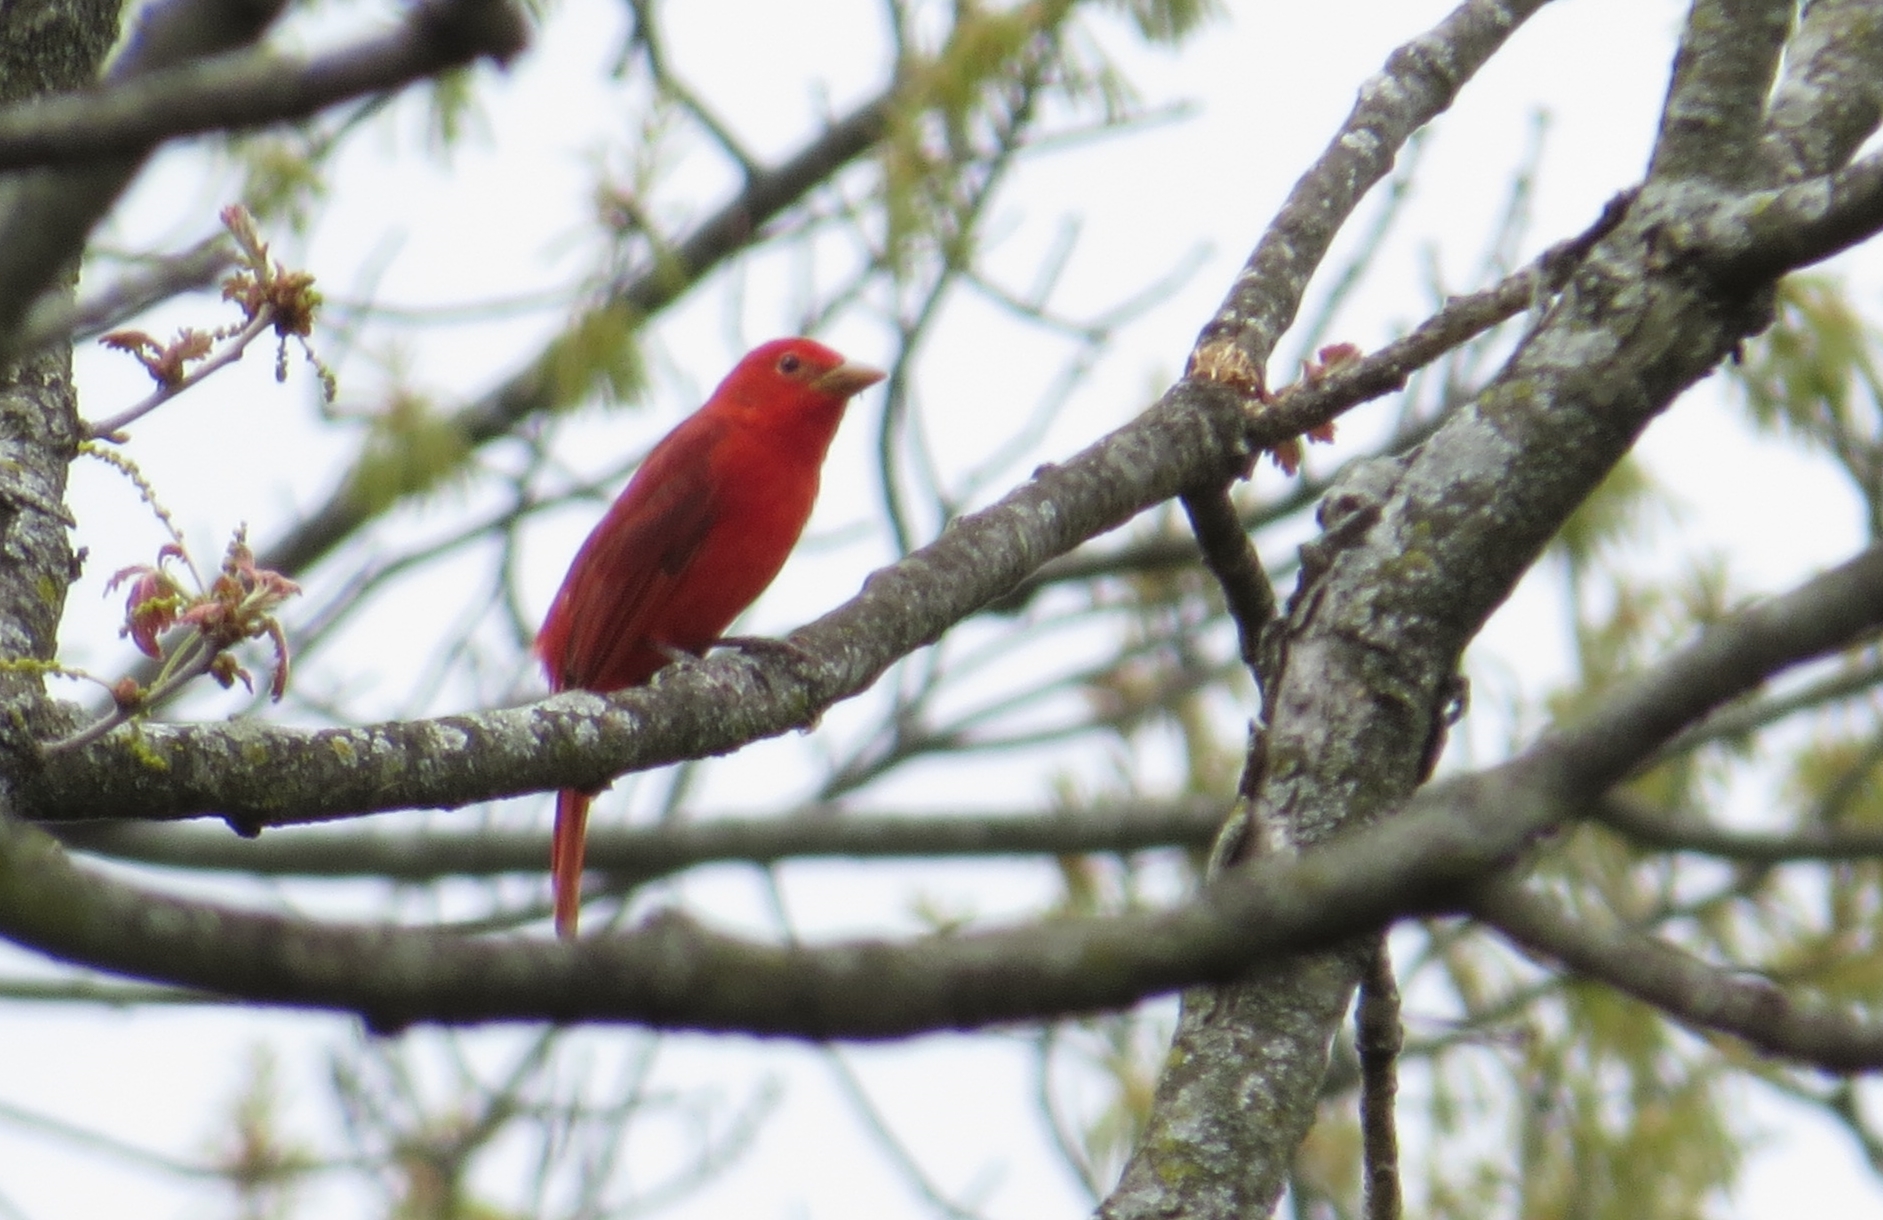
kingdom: Animalia
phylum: Chordata
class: Aves
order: Passeriformes
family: Cardinalidae
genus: Piranga
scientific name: Piranga rubra
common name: Summer tanager
